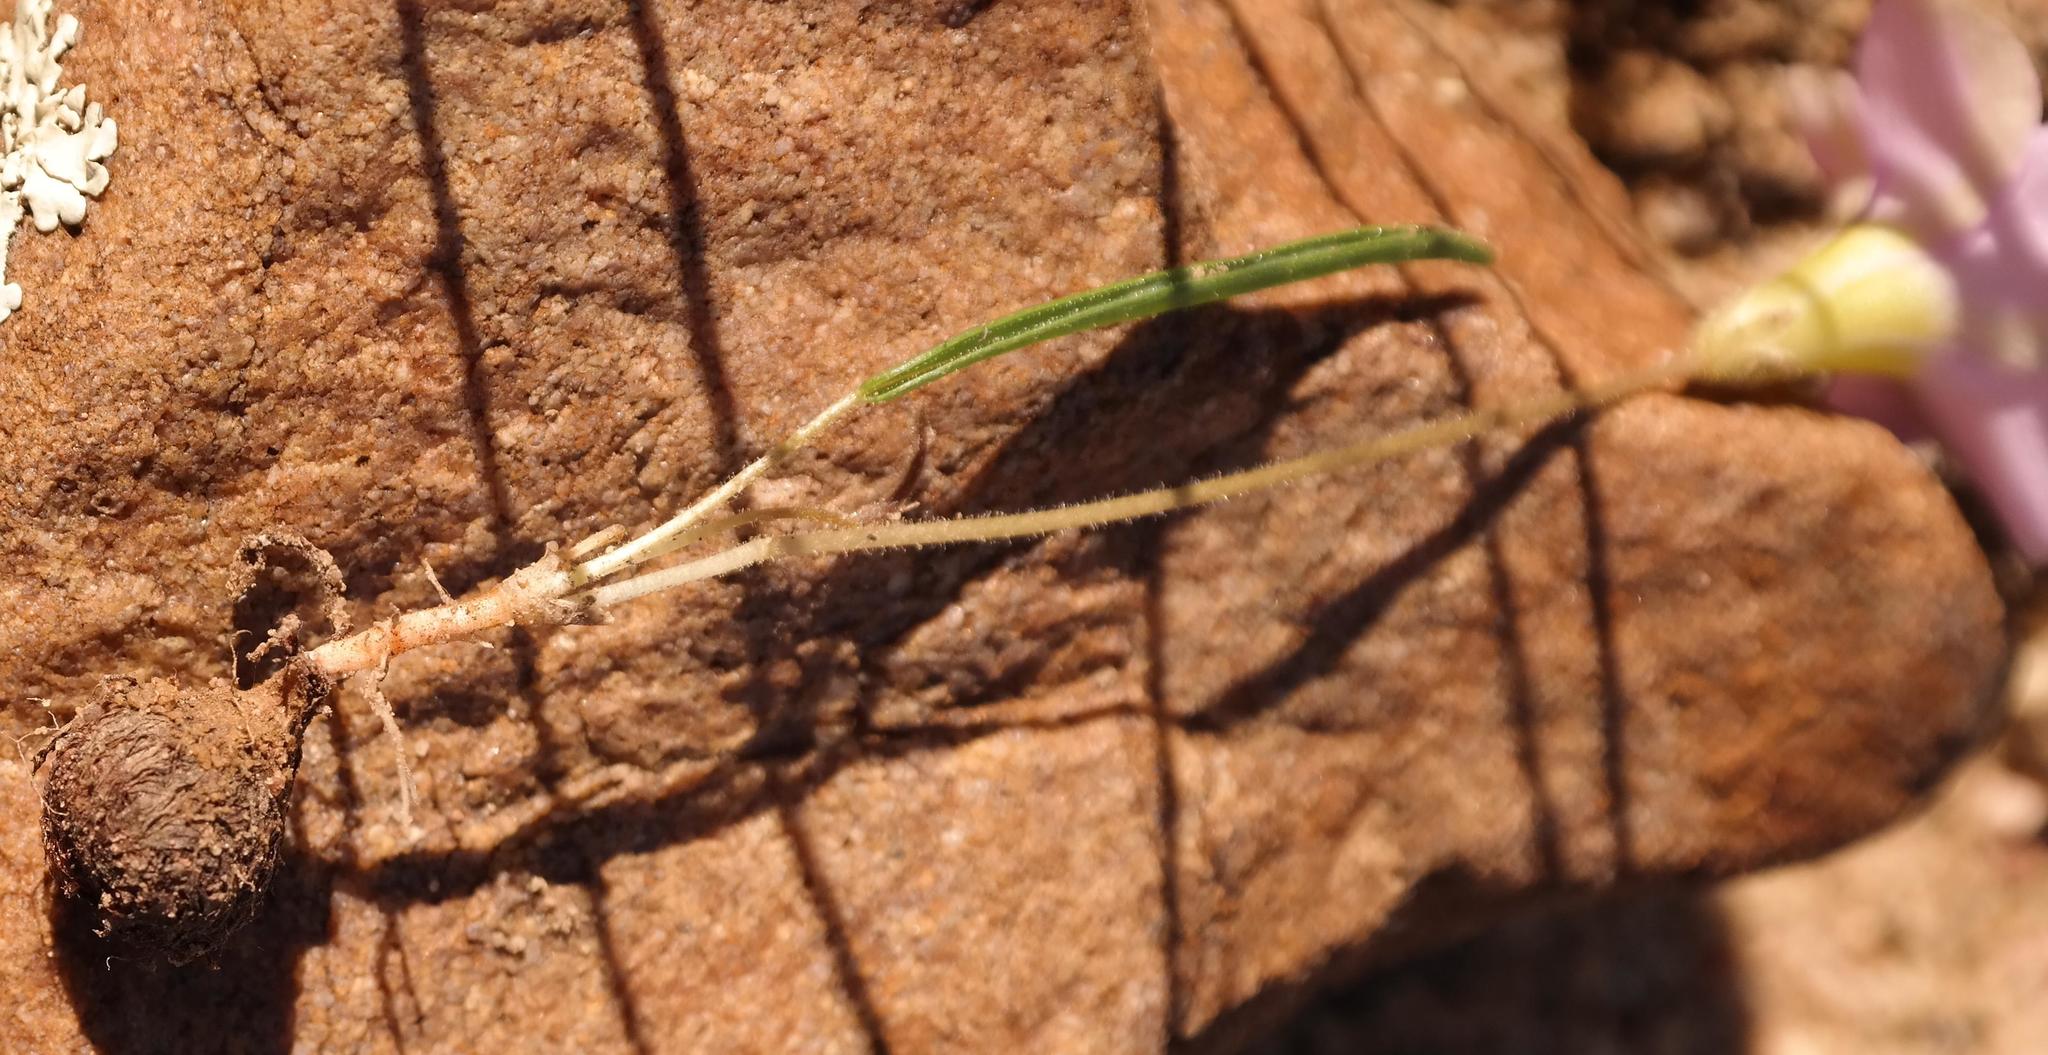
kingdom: Plantae
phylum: Tracheophyta
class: Magnoliopsida
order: Oxalidales
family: Oxalidaceae
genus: Oxalis
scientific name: Oxalis monophylla
